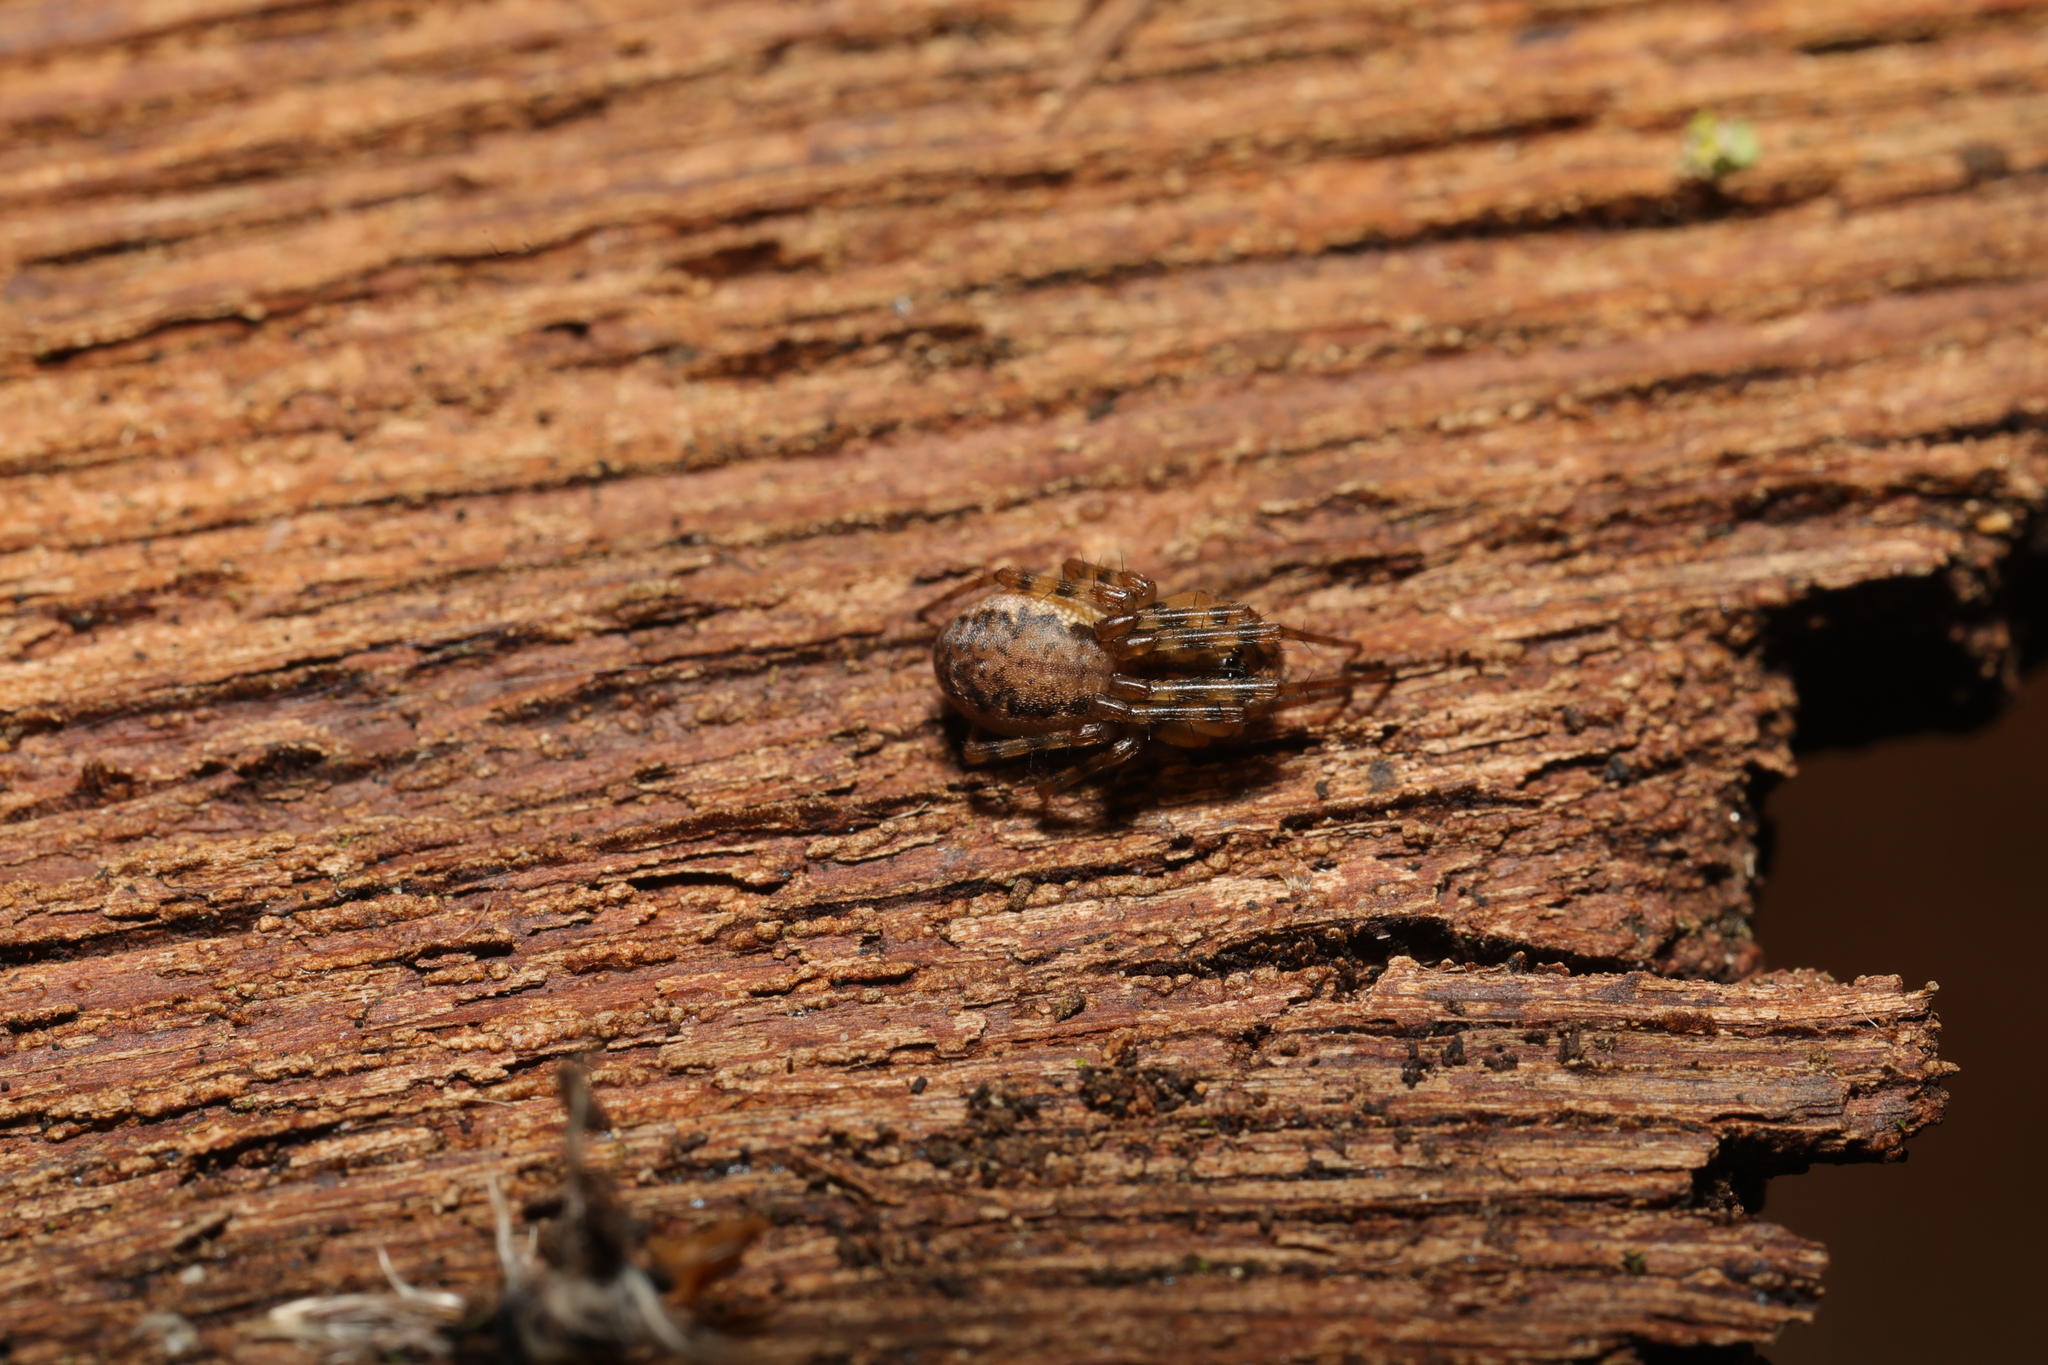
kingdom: Animalia
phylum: Arthropoda
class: Arachnida
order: Araneae
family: Linyphiidae
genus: Neriene
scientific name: Neriene montana
